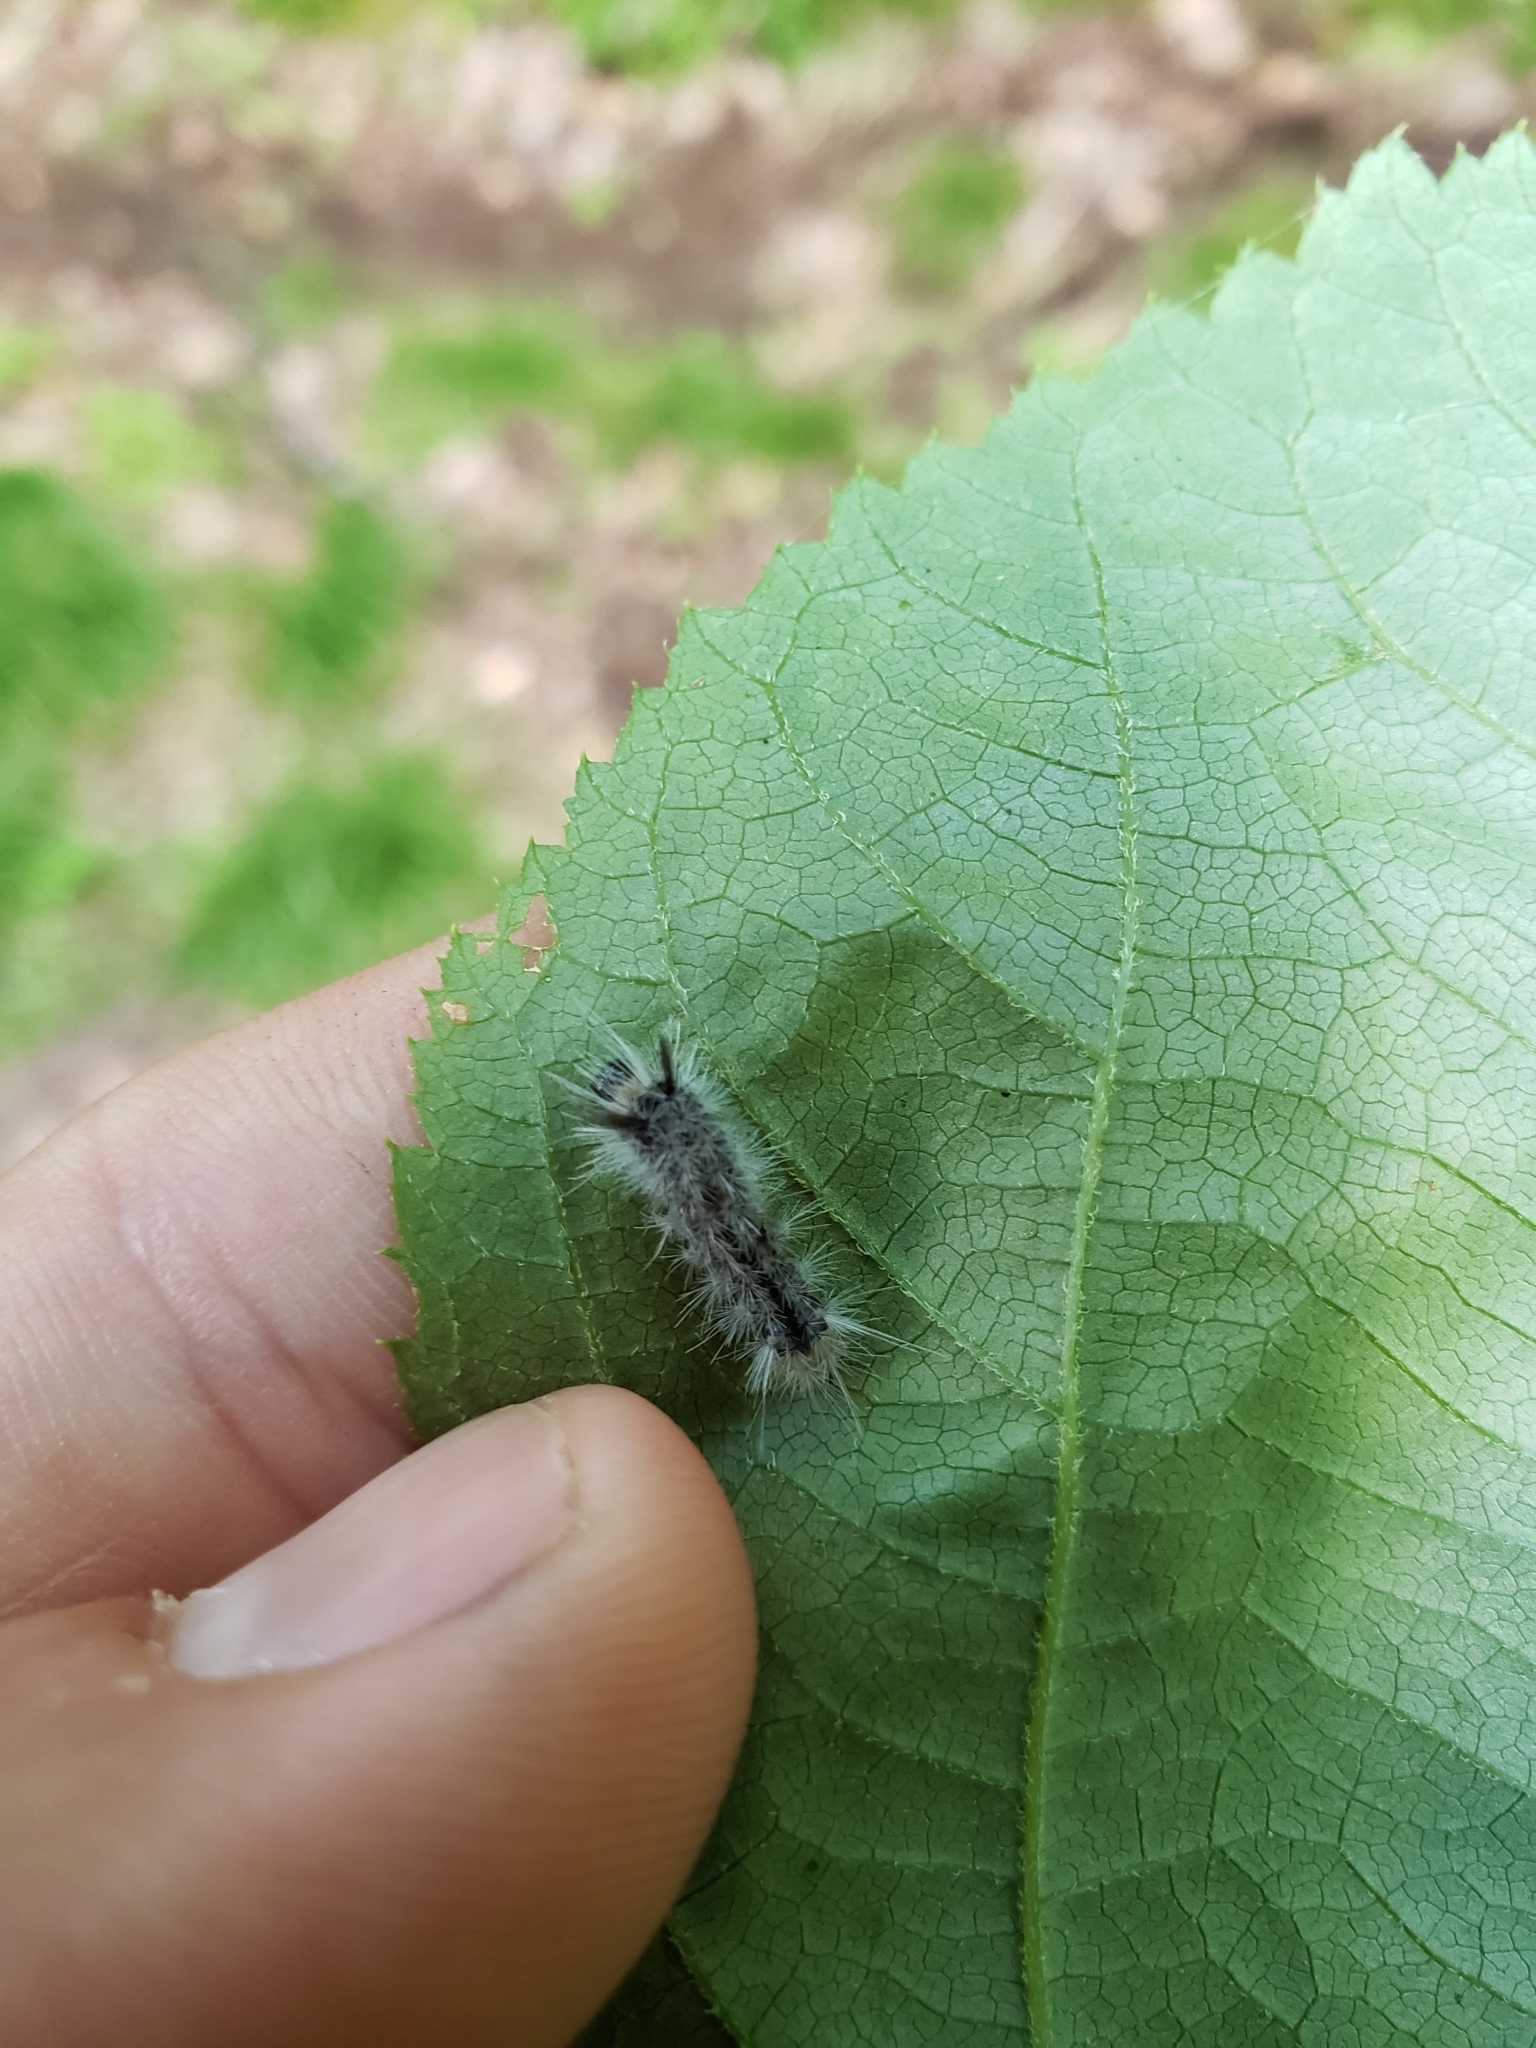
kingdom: Animalia
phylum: Arthropoda
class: Insecta
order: Lepidoptera
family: Erebidae
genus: Halysidota
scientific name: Halysidota tessellaris
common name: Banded tussock moth
